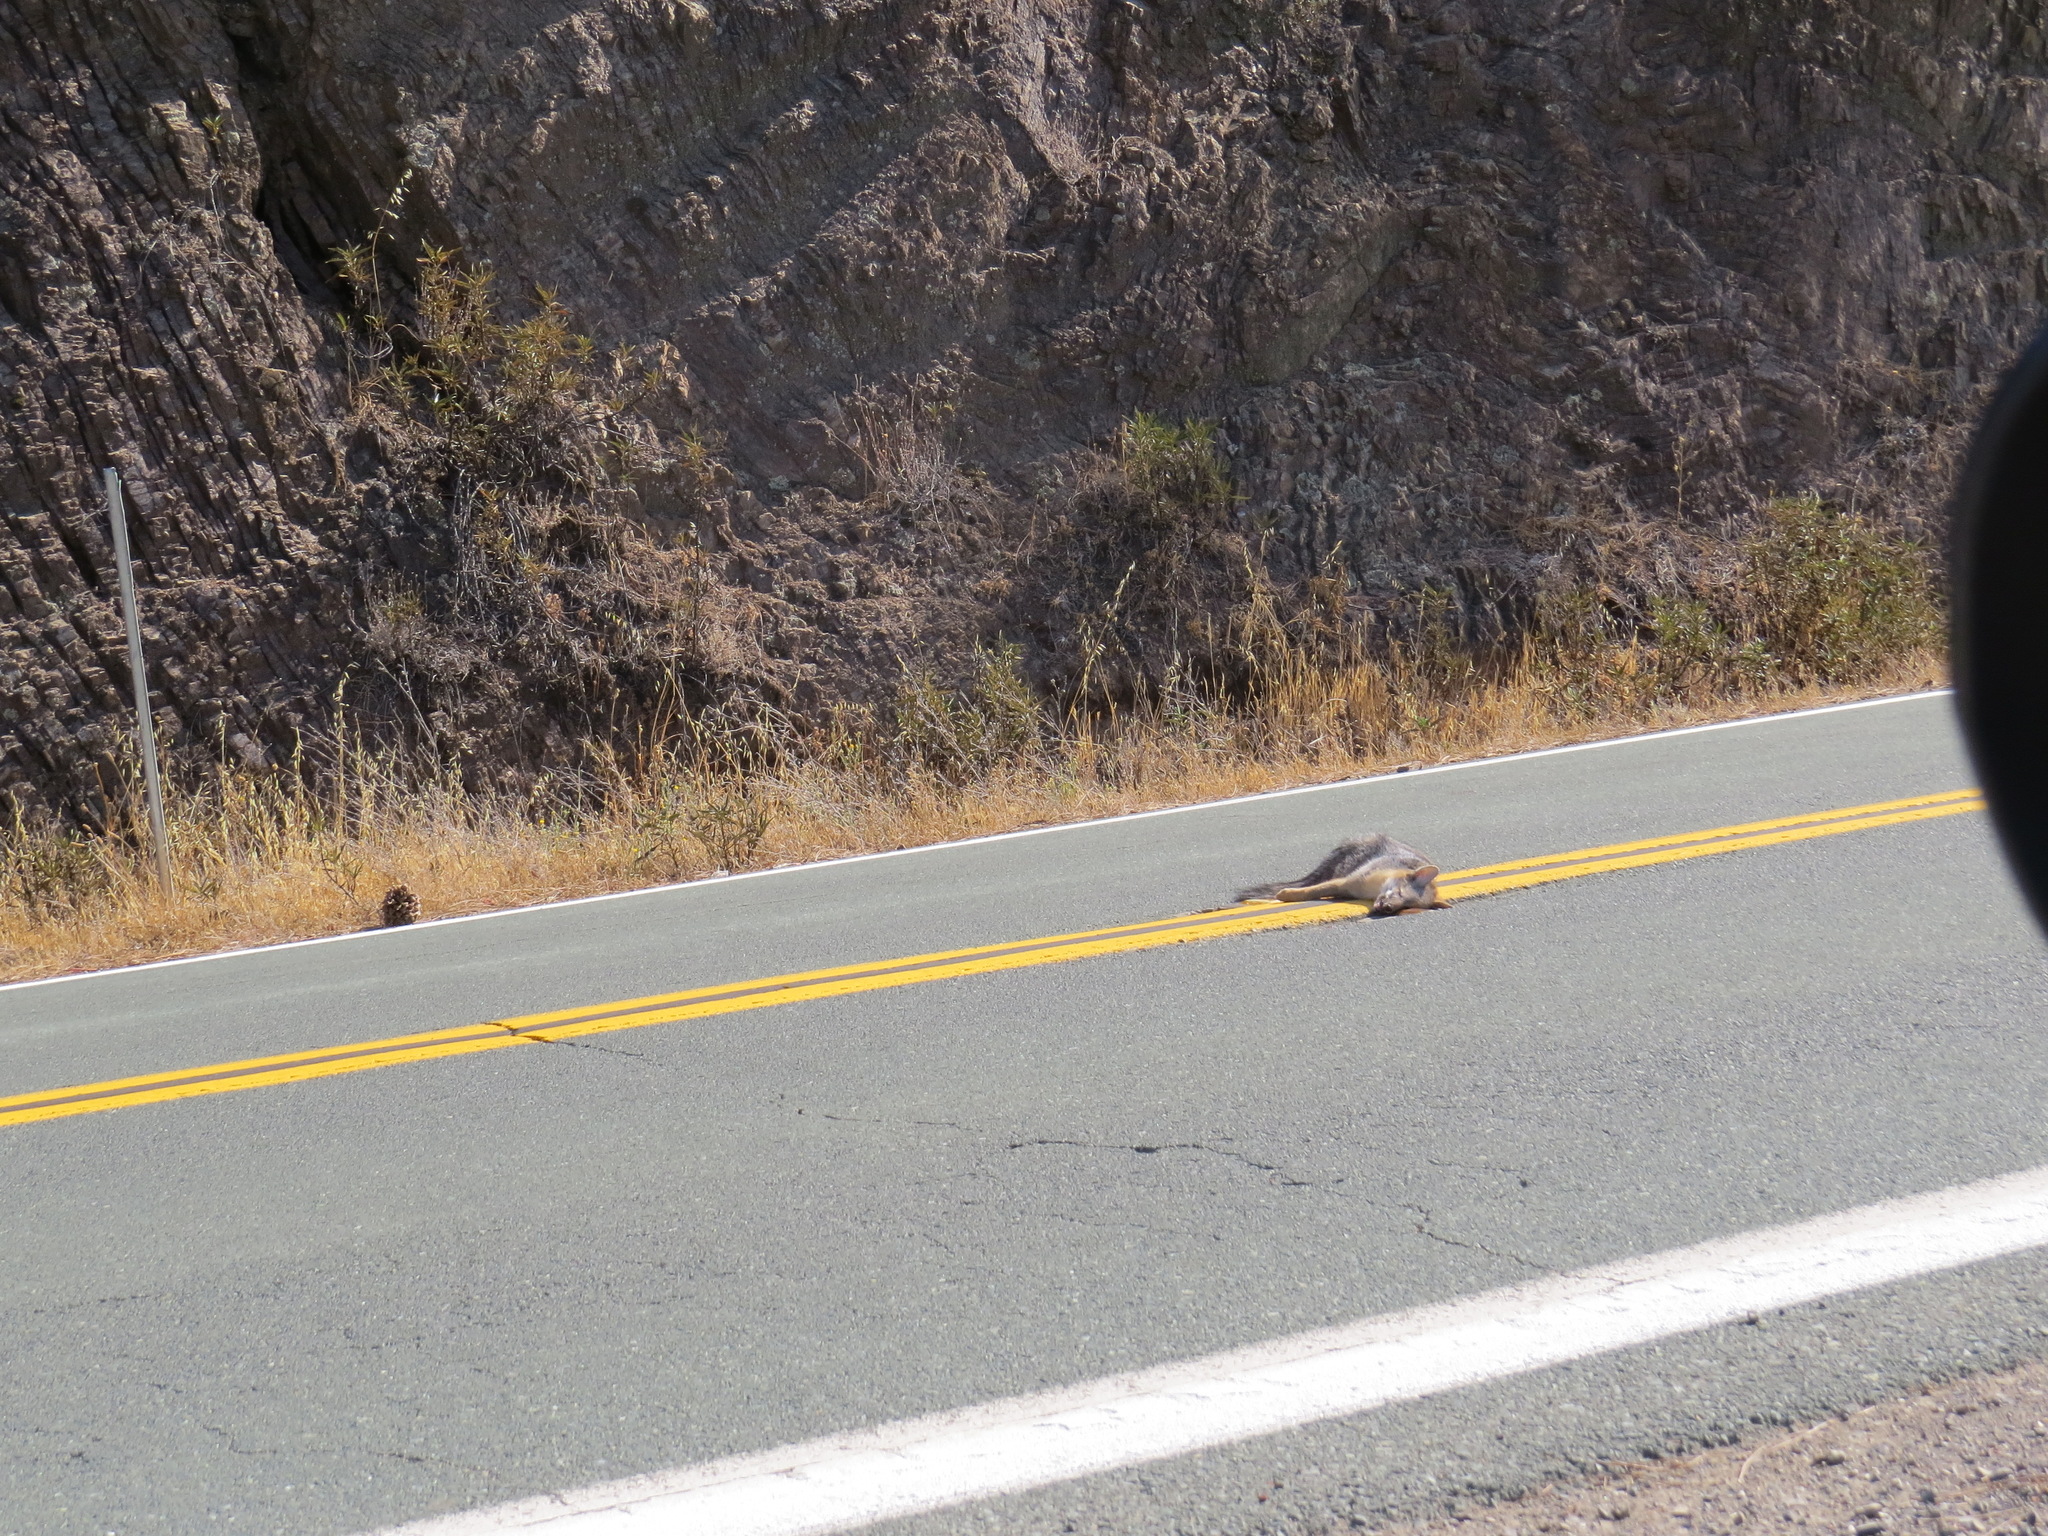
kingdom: Animalia
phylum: Chordata
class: Mammalia
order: Carnivora
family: Canidae
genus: Urocyon
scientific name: Urocyon cinereoargenteus
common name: Gray fox
